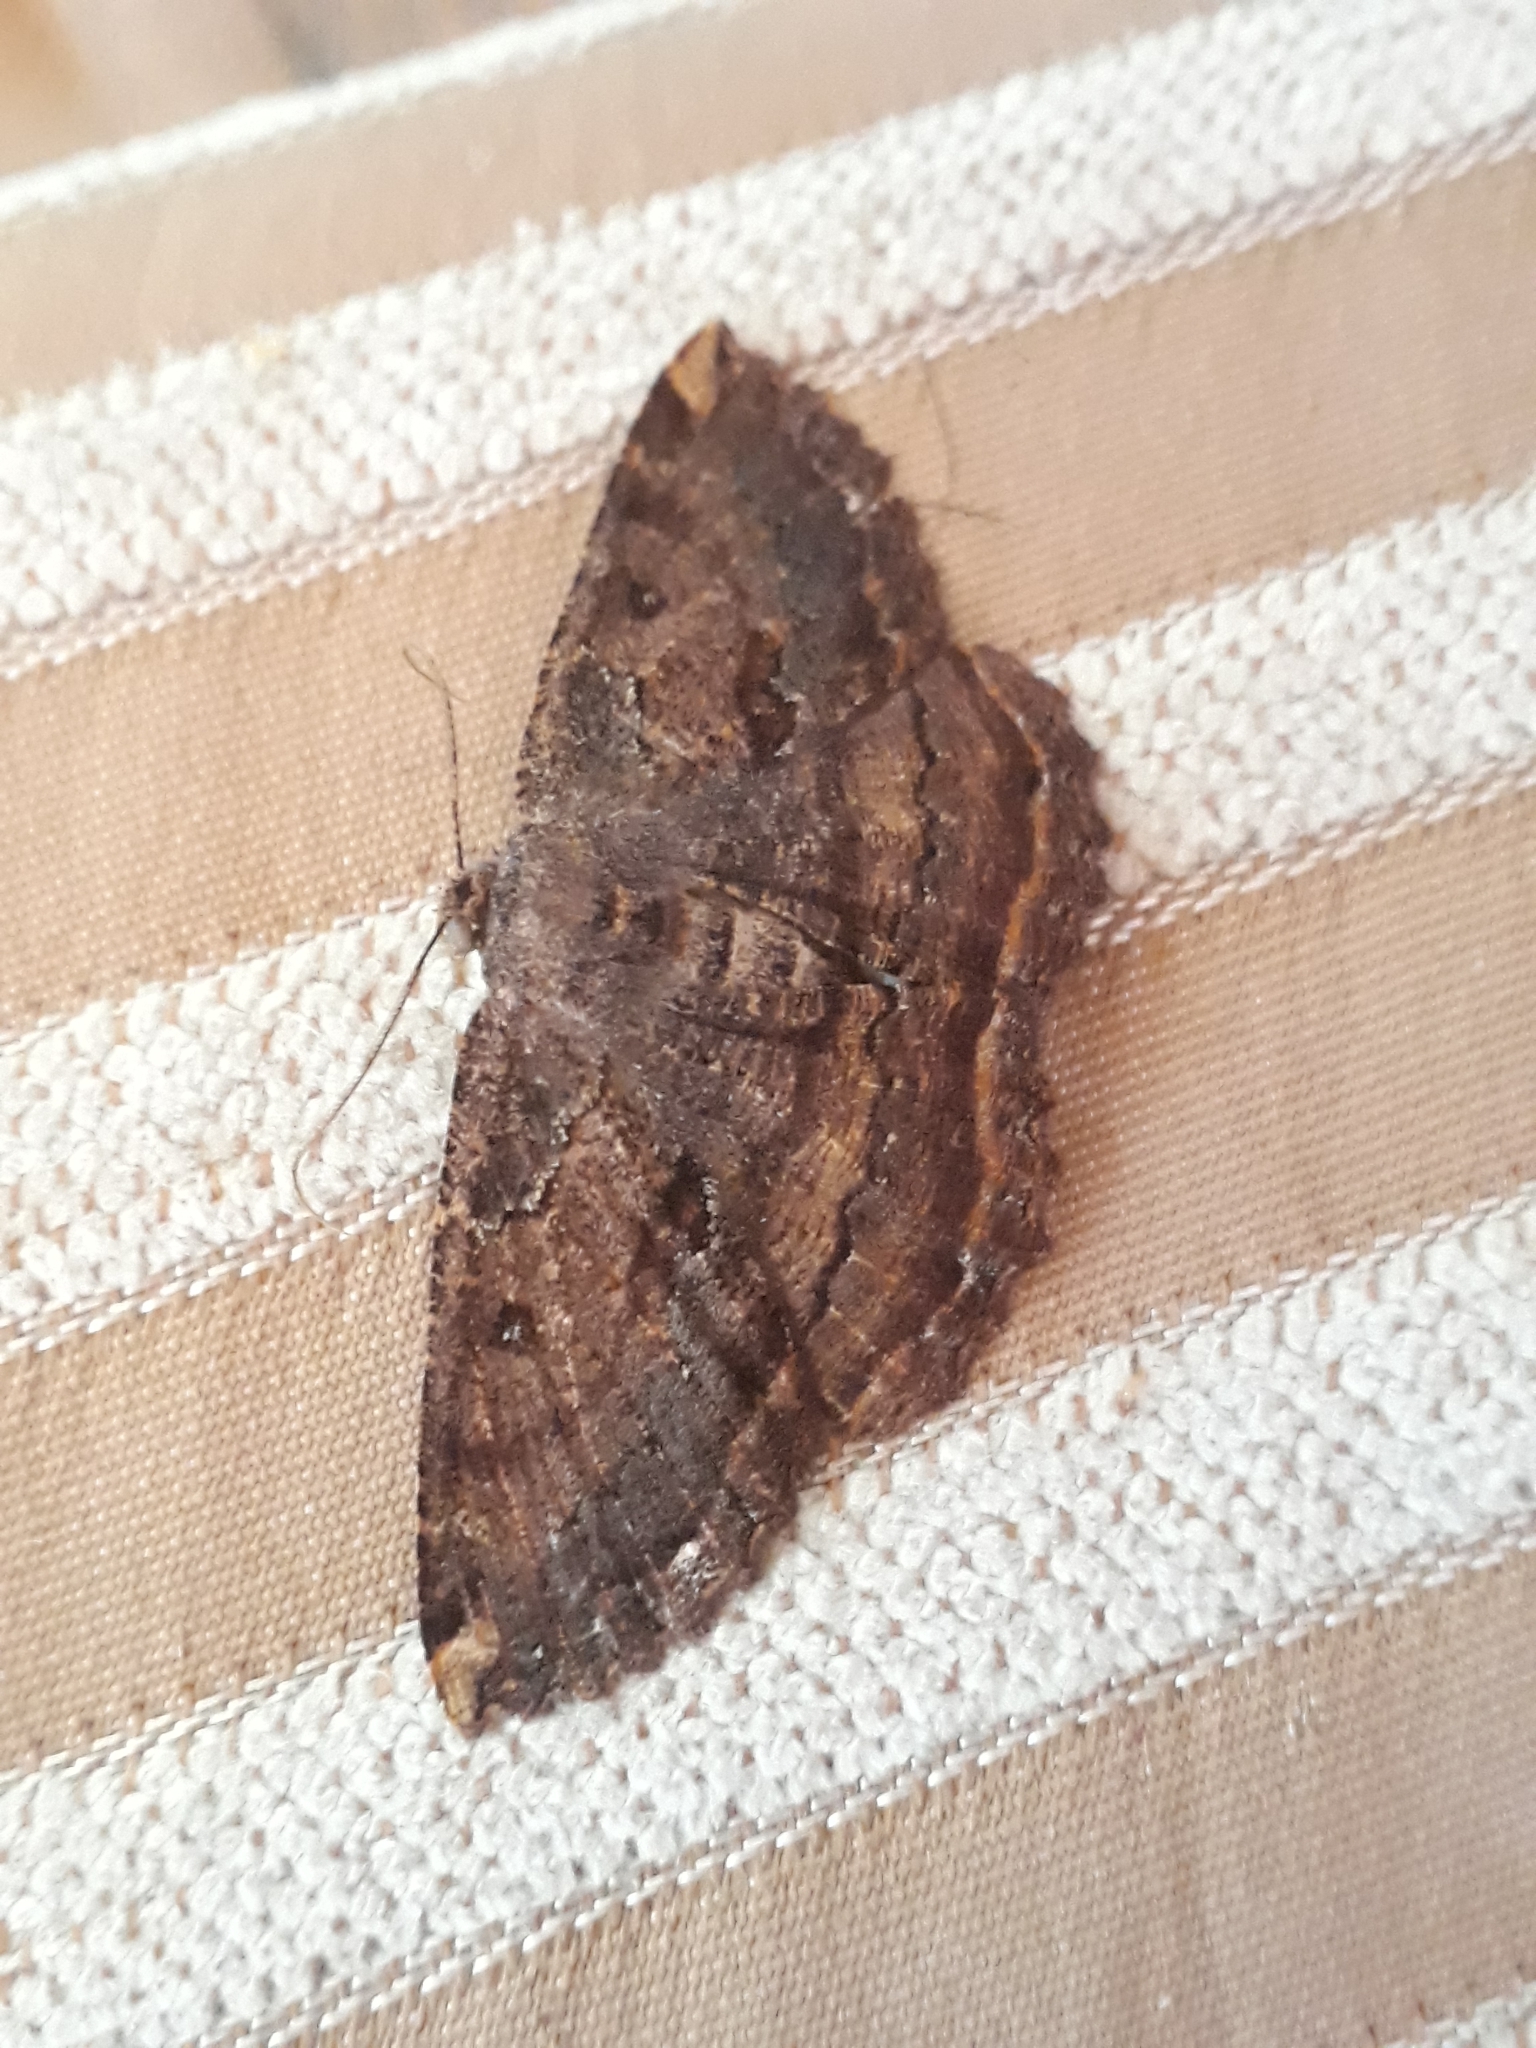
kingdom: Animalia
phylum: Arthropoda
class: Insecta
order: Lepidoptera
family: Geometridae
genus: Gellonia
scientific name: Gellonia dejectaria
